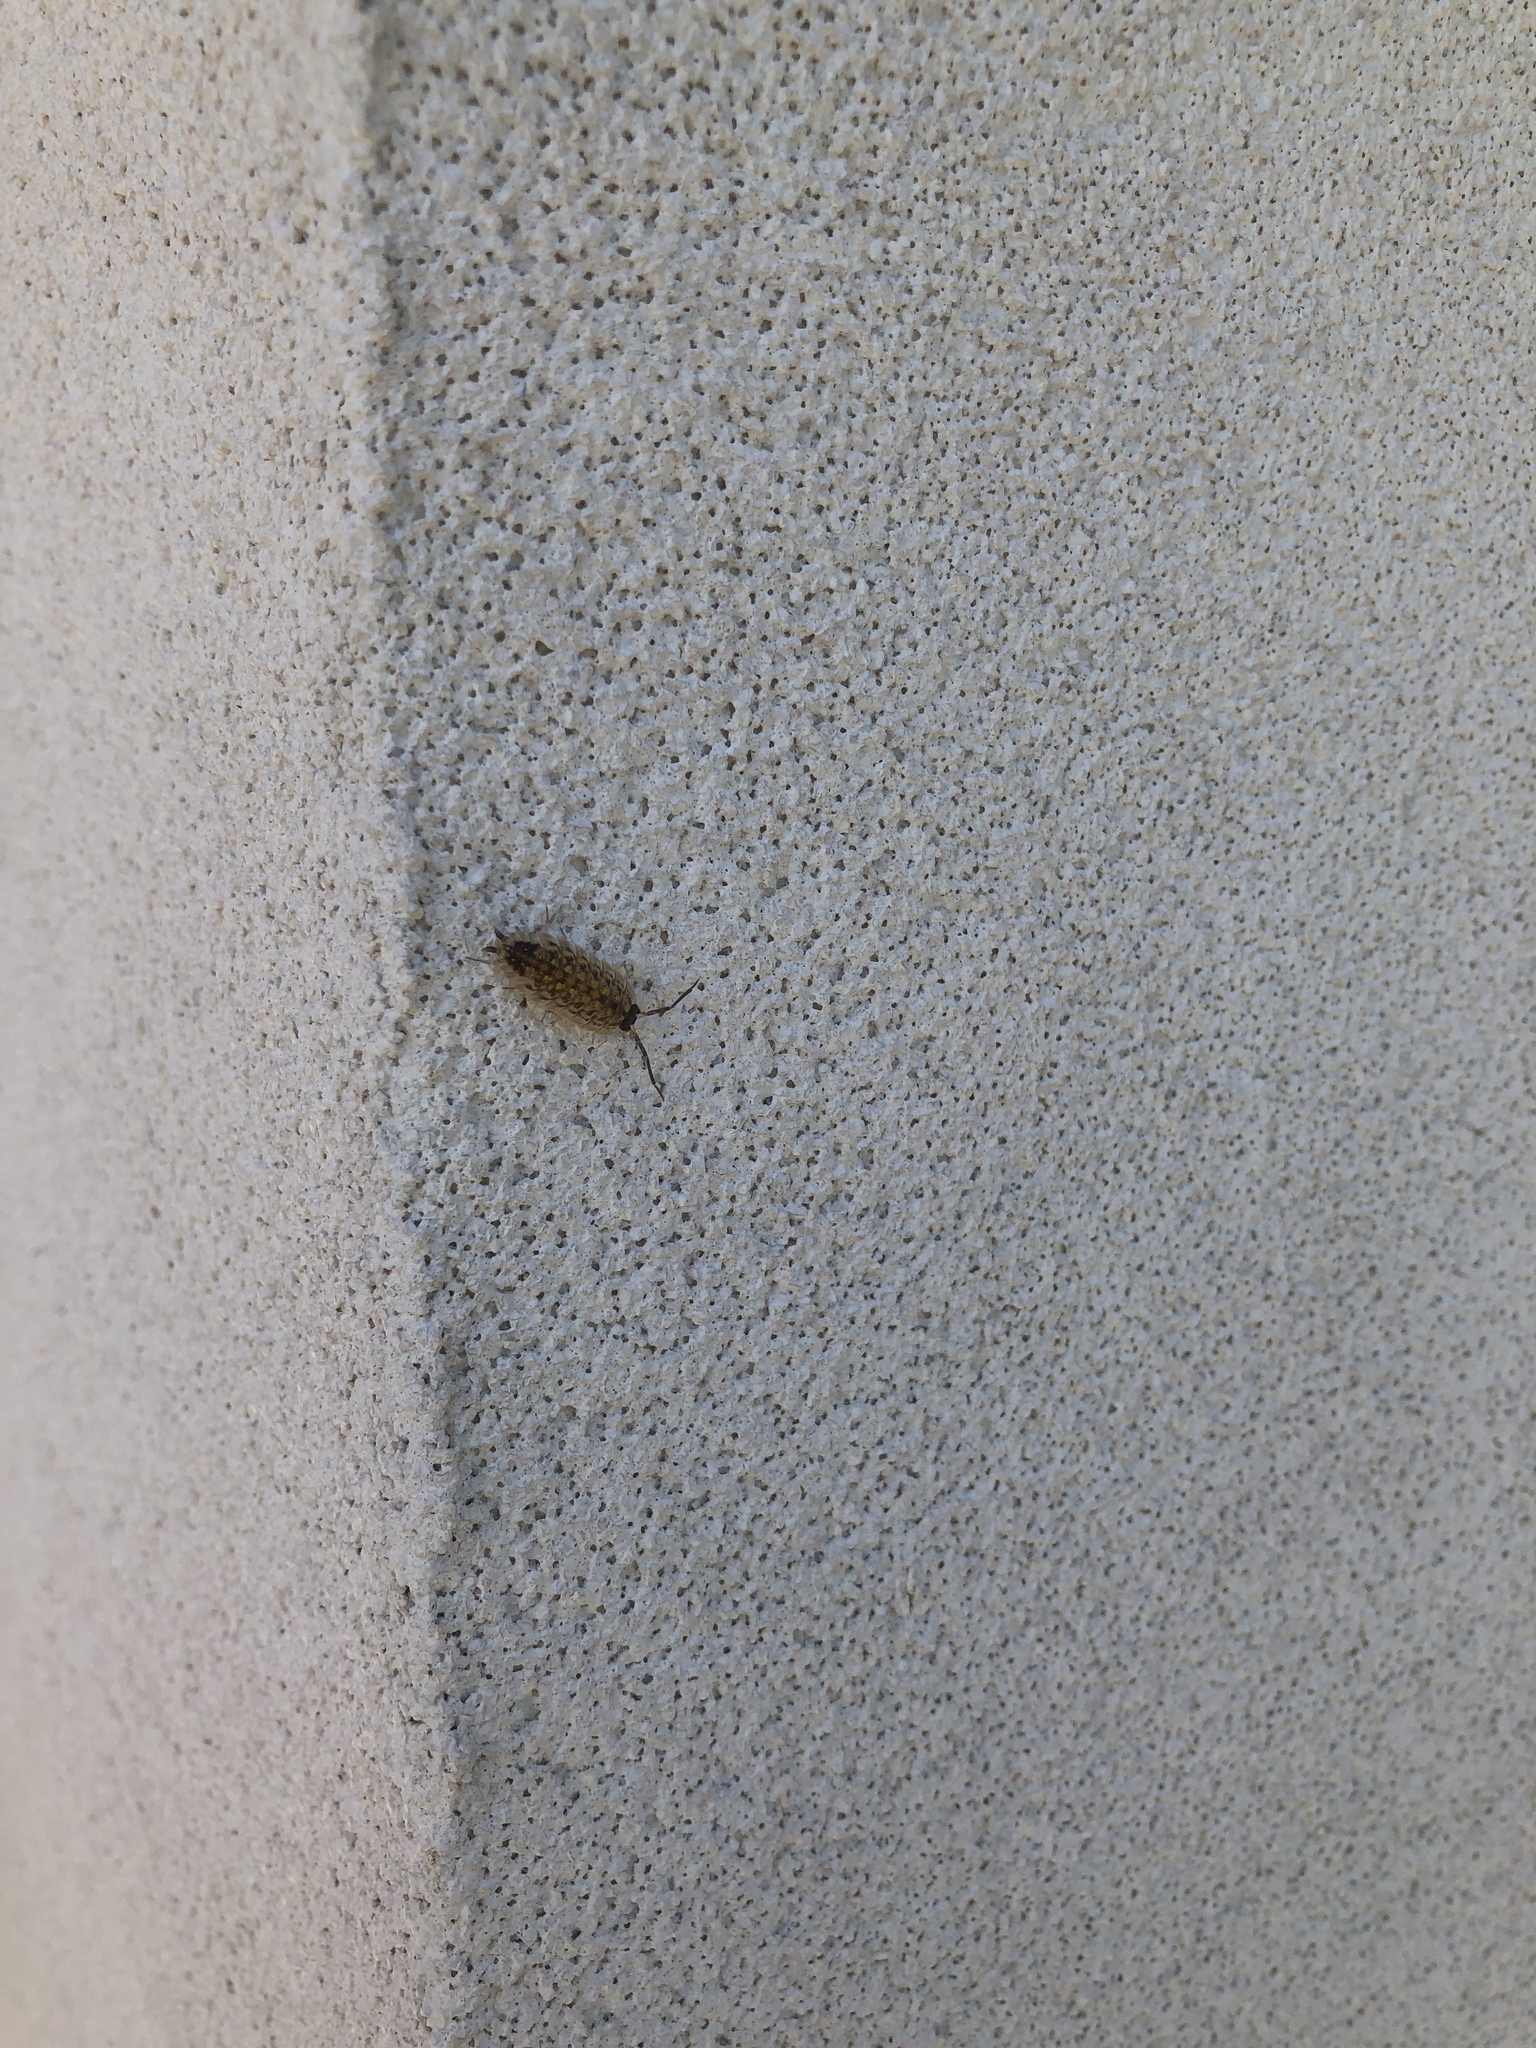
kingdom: Animalia
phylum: Arthropoda
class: Malacostraca
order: Isopoda
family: Porcellionidae
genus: Porcellio
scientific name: Porcellio spinicornis
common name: Painted woodlouse
